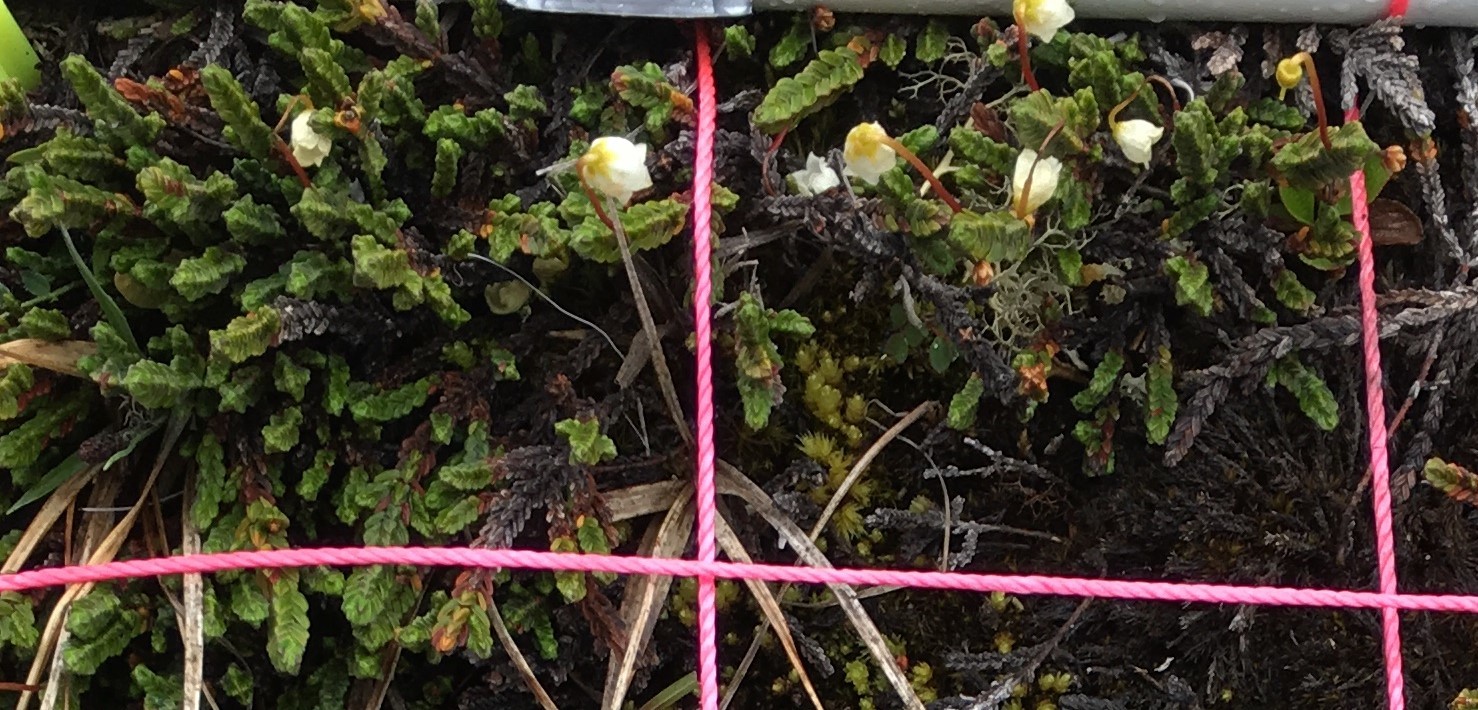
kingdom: Plantae
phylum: Tracheophyta
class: Magnoliopsida
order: Ericales
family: Ericaceae
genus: Cassiope
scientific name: Cassiope tetragona
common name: Arctic bell heather
